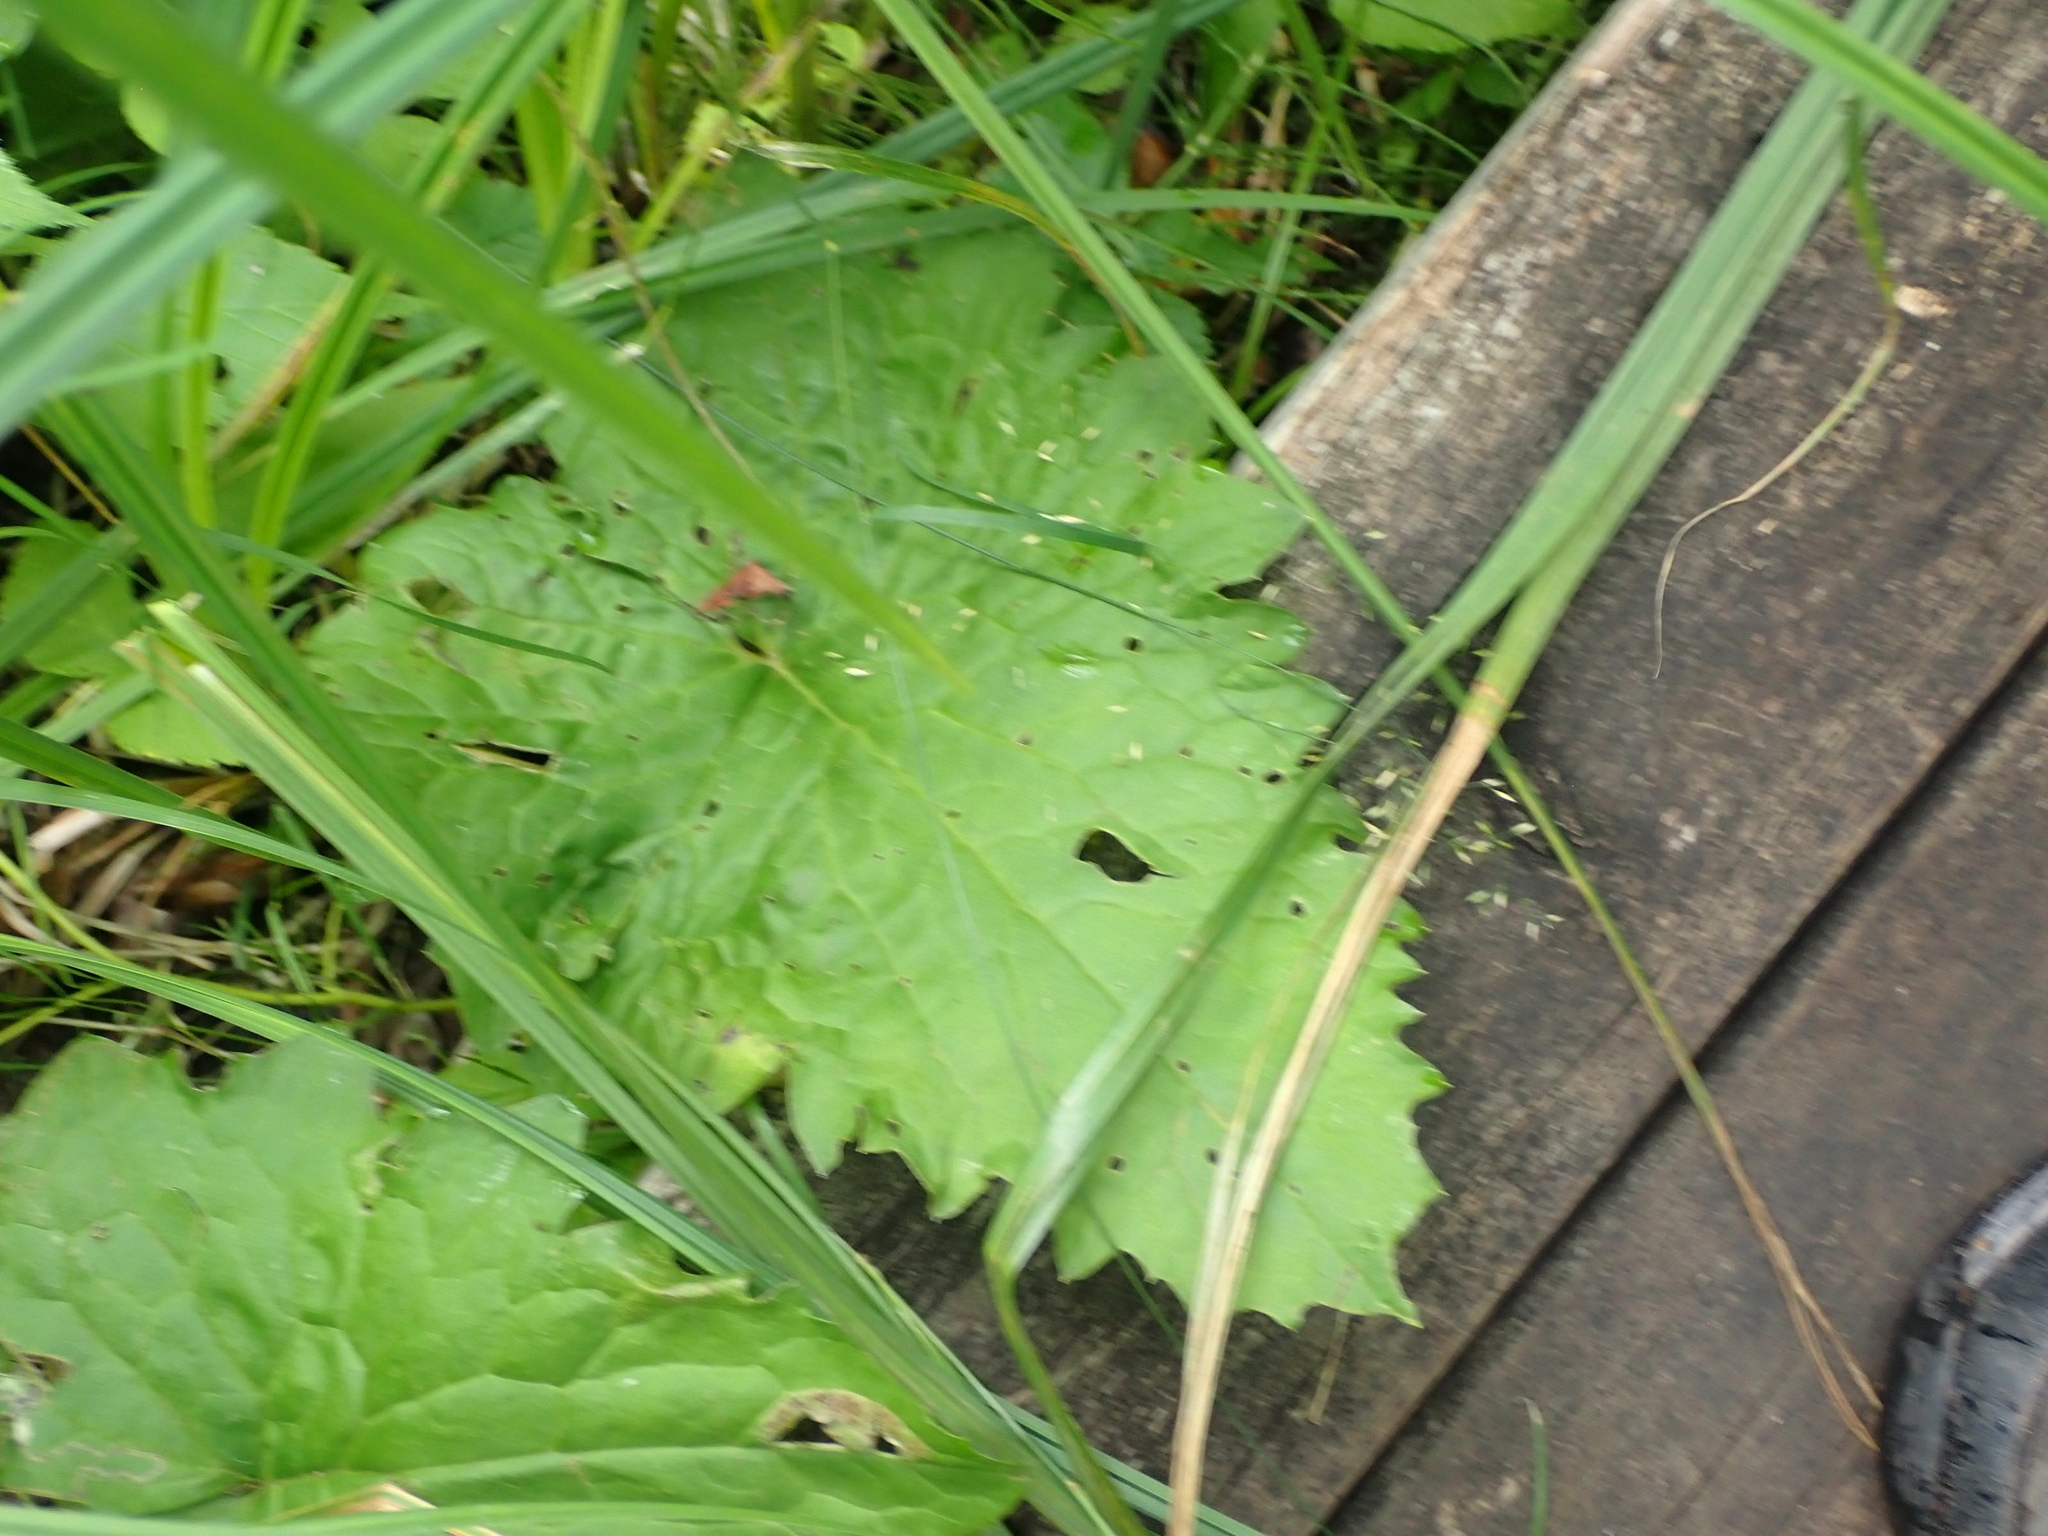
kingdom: Plantae
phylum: Tracheophyta
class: Magnoliopsida
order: Asterales
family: Asteraceae
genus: Petasites
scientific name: Petasites frigidus
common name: Arctic butterbur
